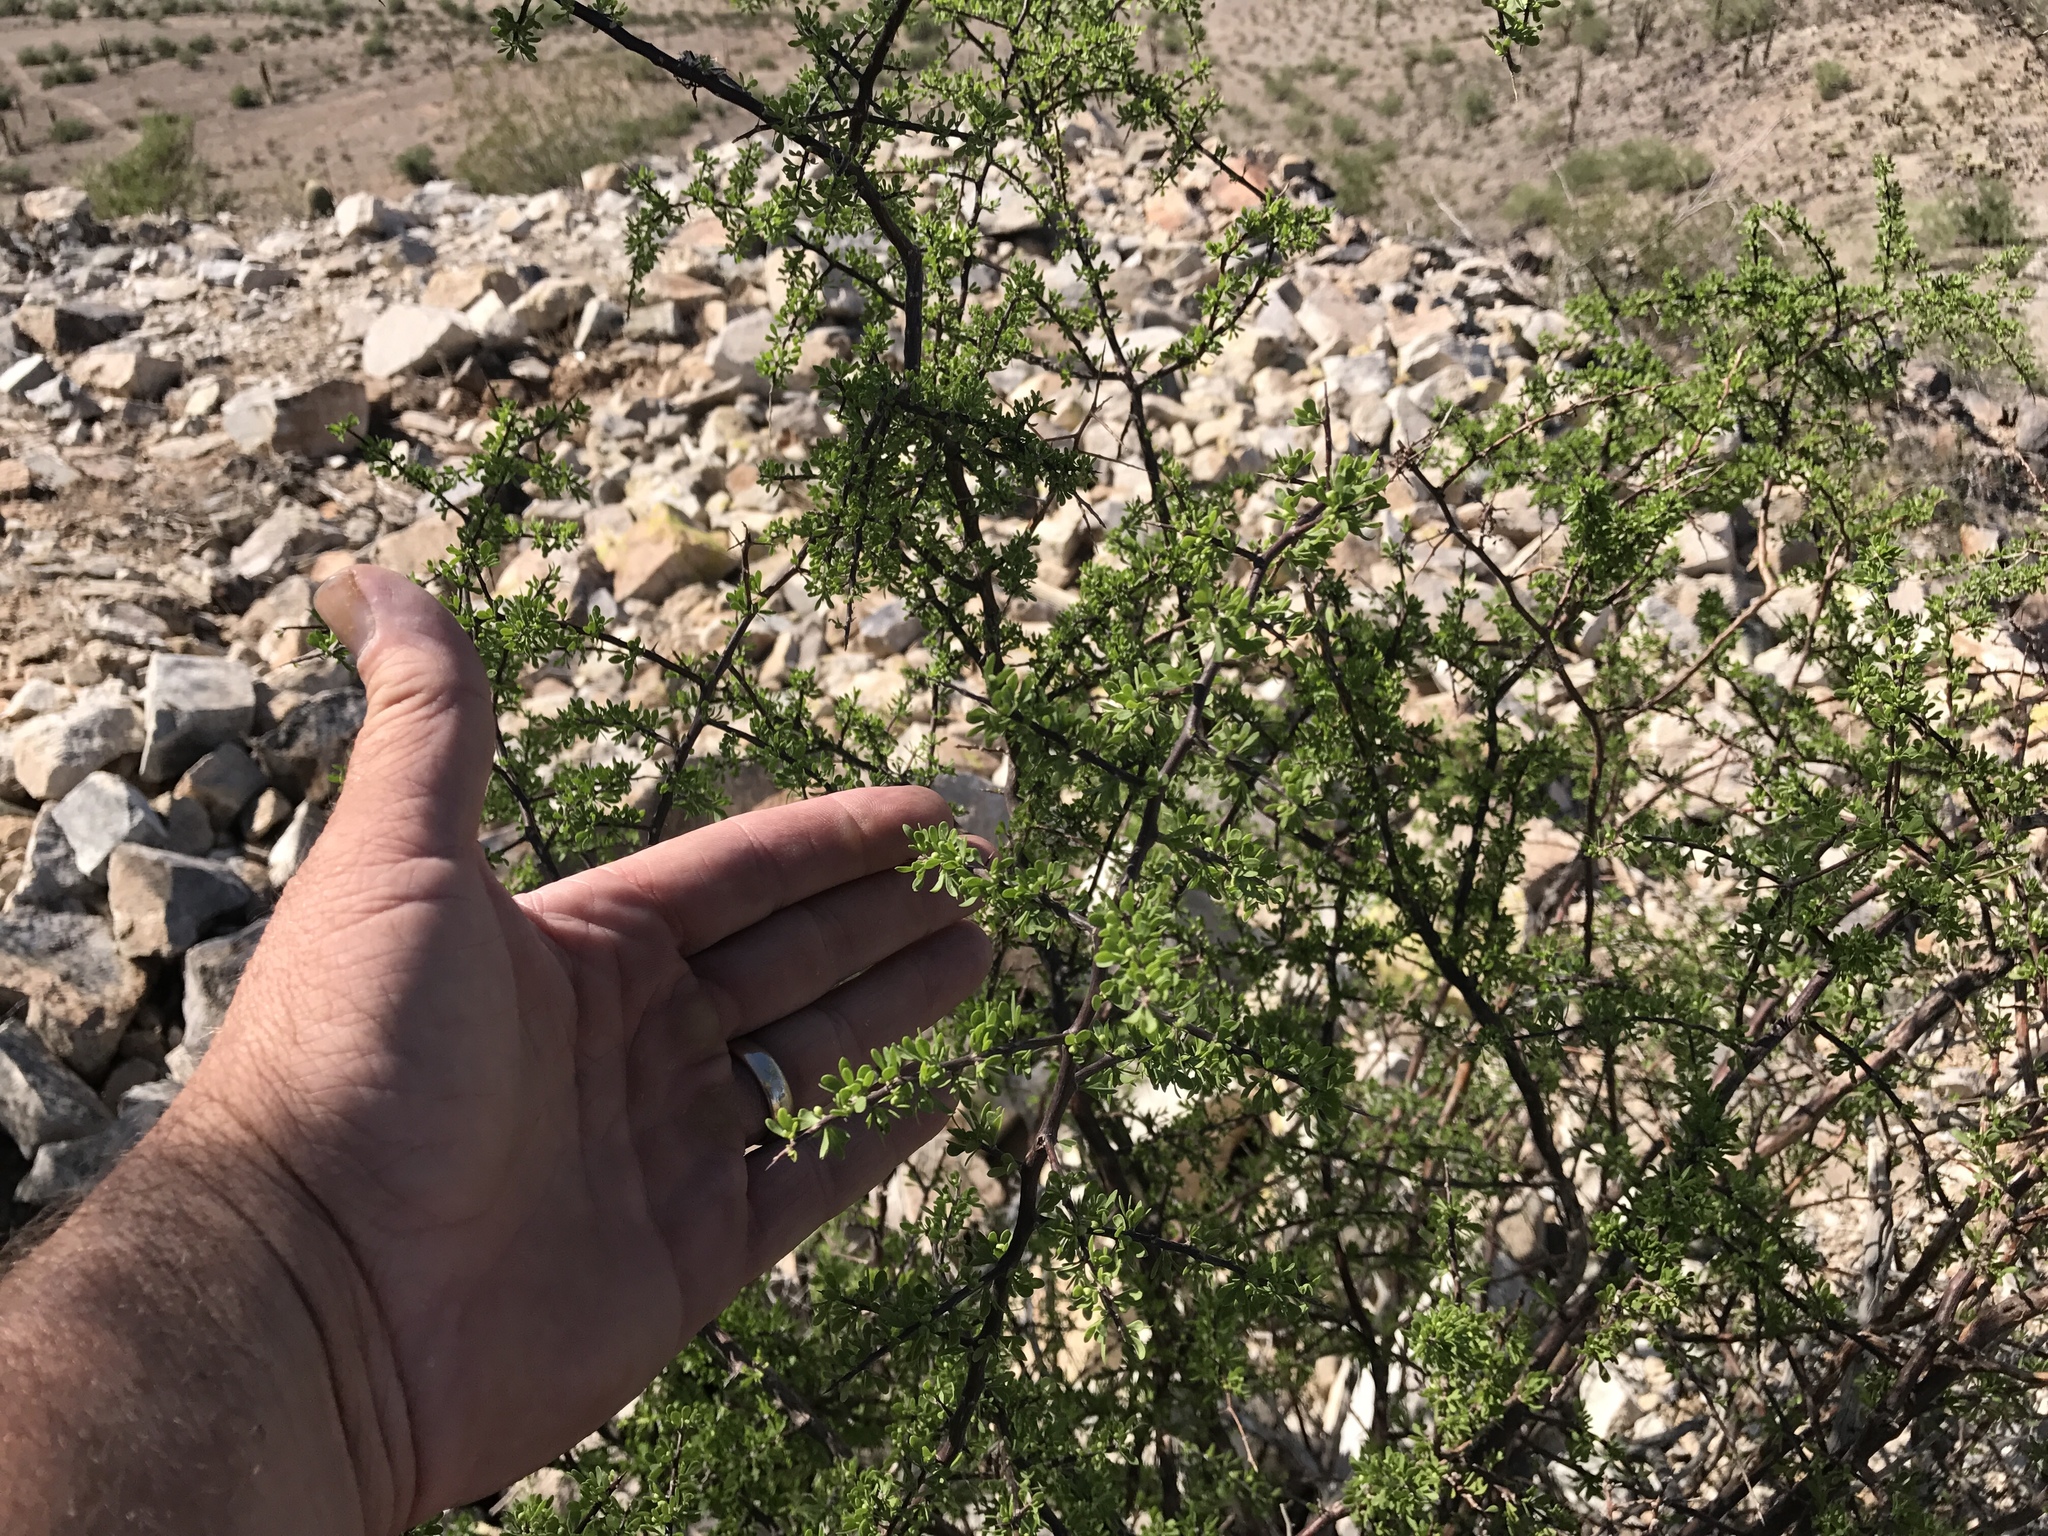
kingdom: Plantae
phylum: Tracheophyta
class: Magnoliopsida
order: Solanales
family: Solanaceae
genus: Lycium
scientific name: Lycium berlandieri
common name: Berlandier wolfberry
